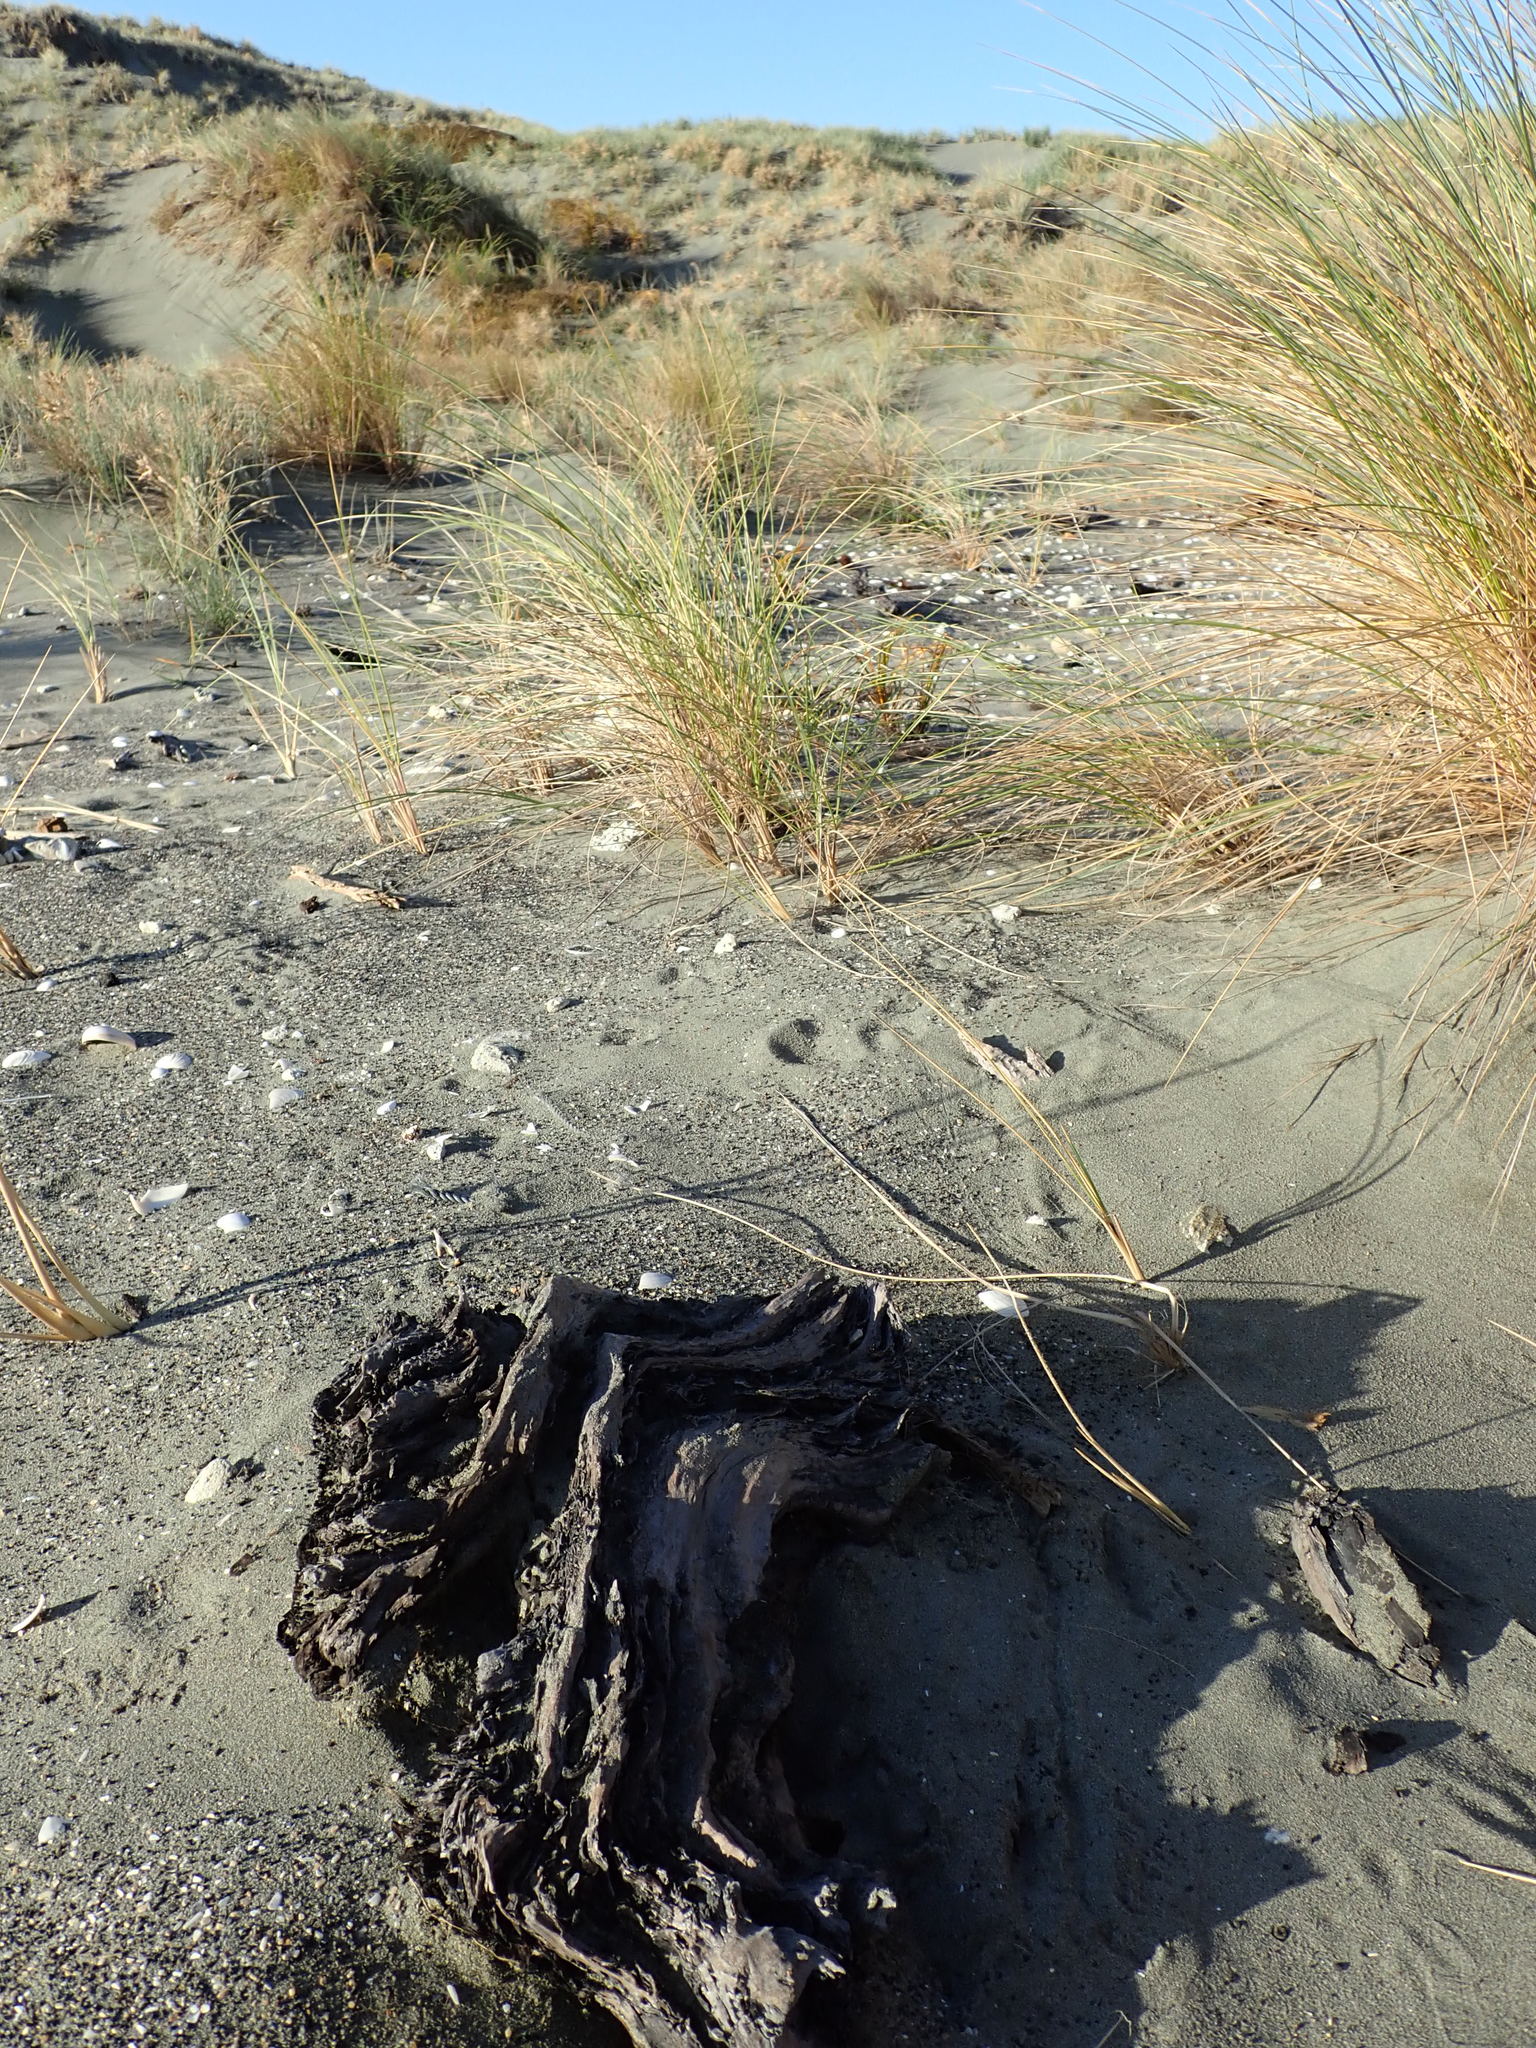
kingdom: Animalia
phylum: Arthropoda
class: Arachnida
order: Araneae
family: Theridiidae
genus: Latrodectus
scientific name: Latrodectus katipo
